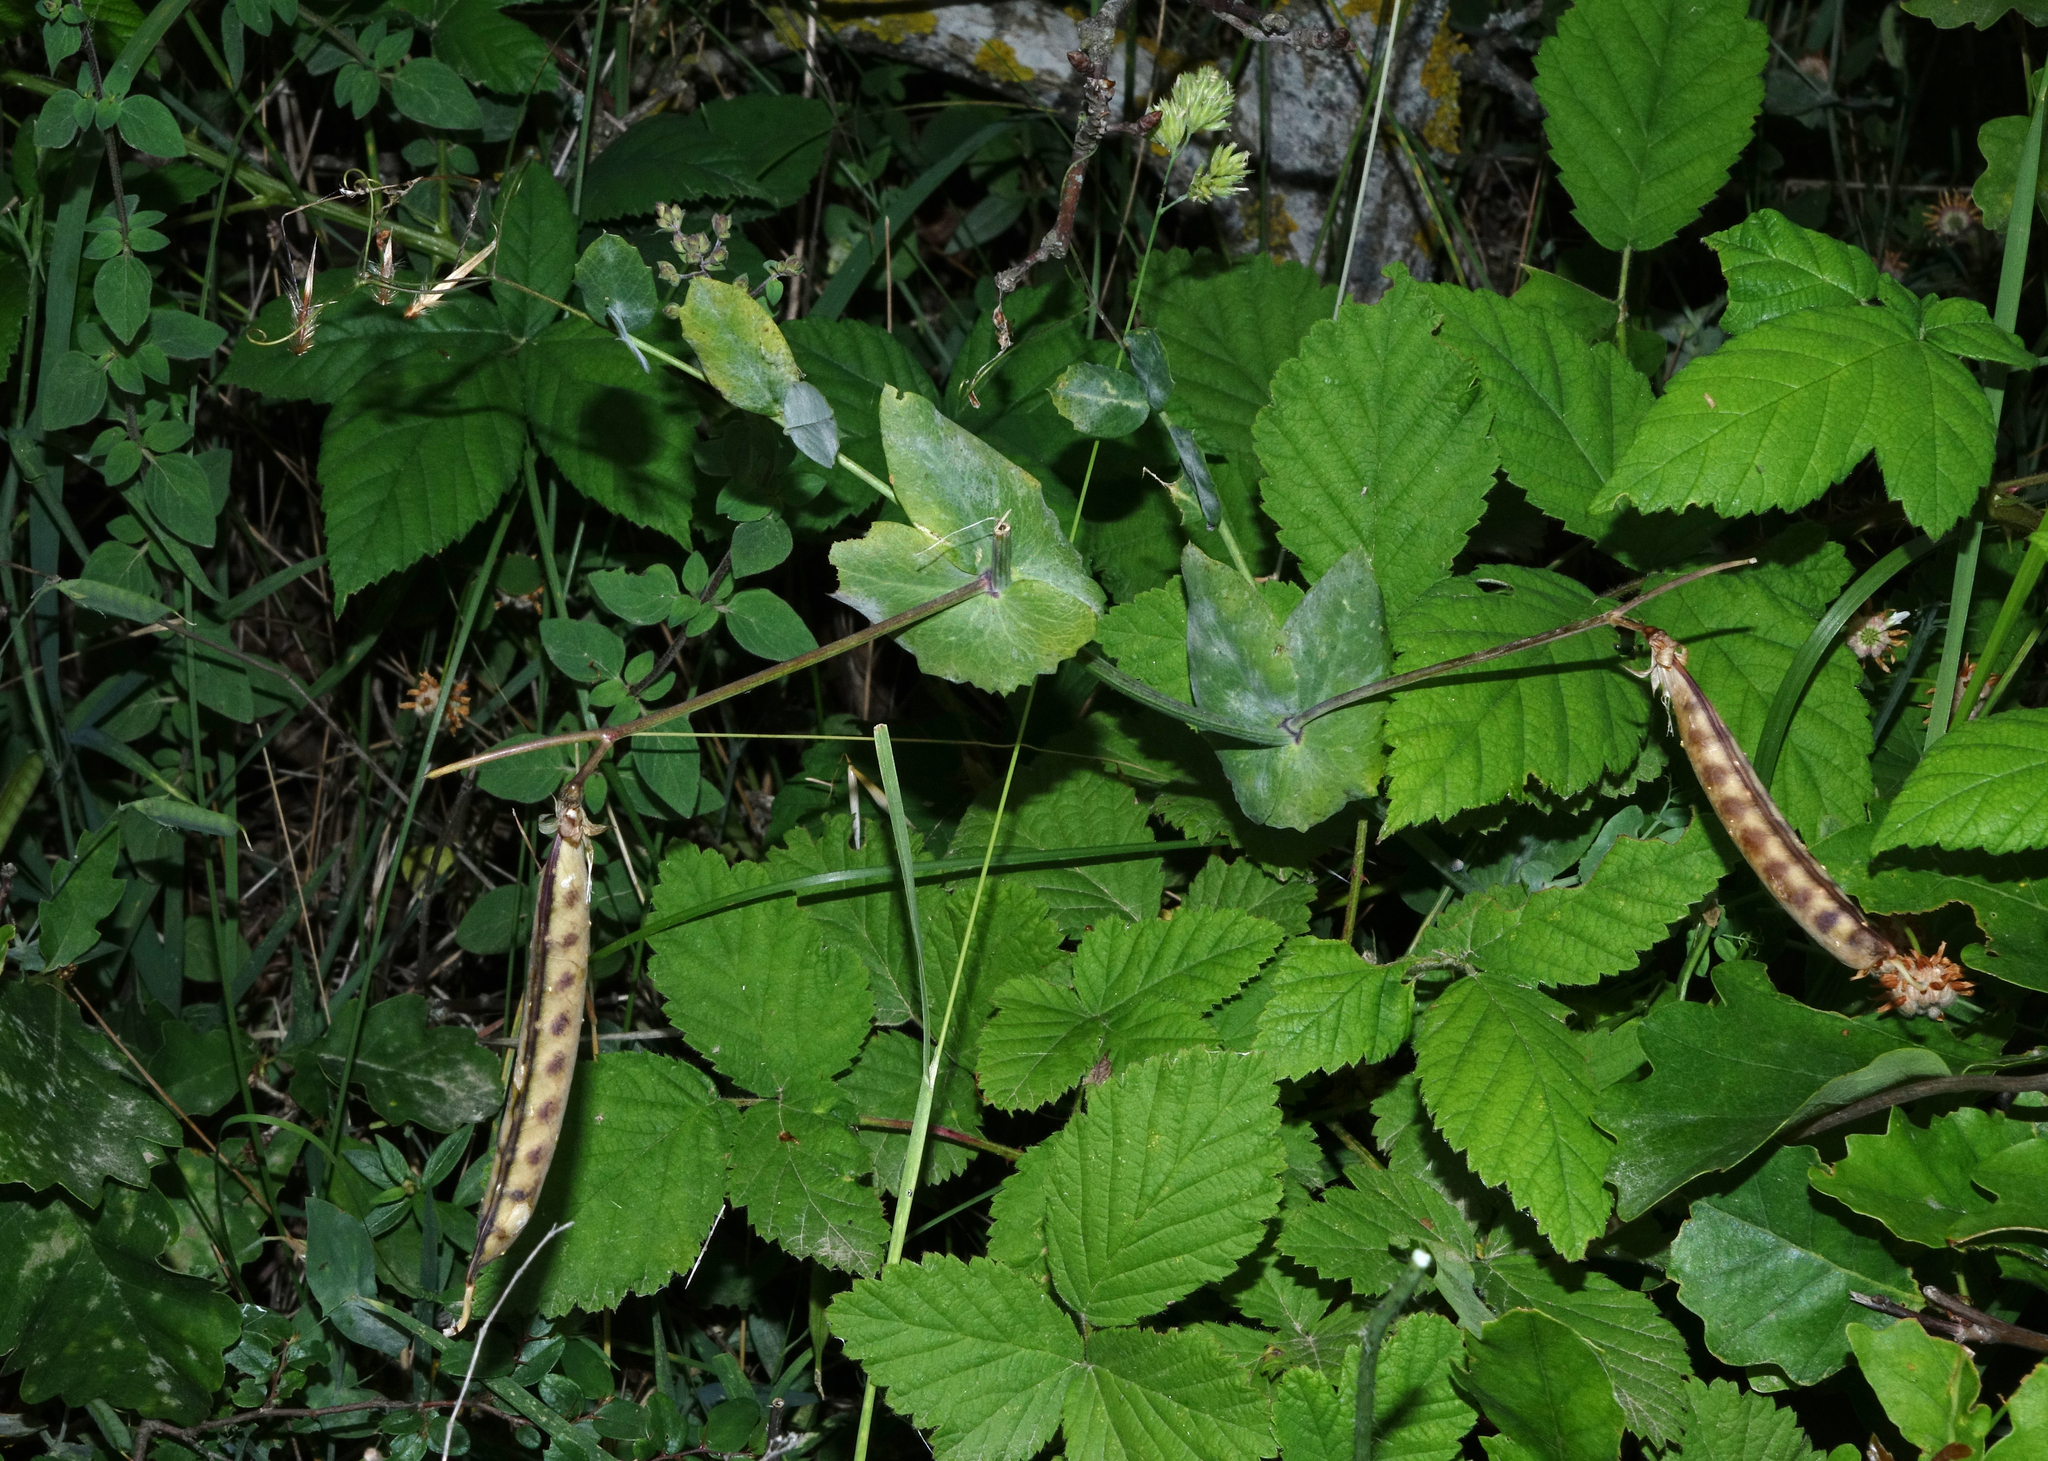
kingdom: Plantae
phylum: Tracheophyta
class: Magnoliopsida
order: Fabales
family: Fabaceae
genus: Lathyrus
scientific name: Lathyrus oleraceus
